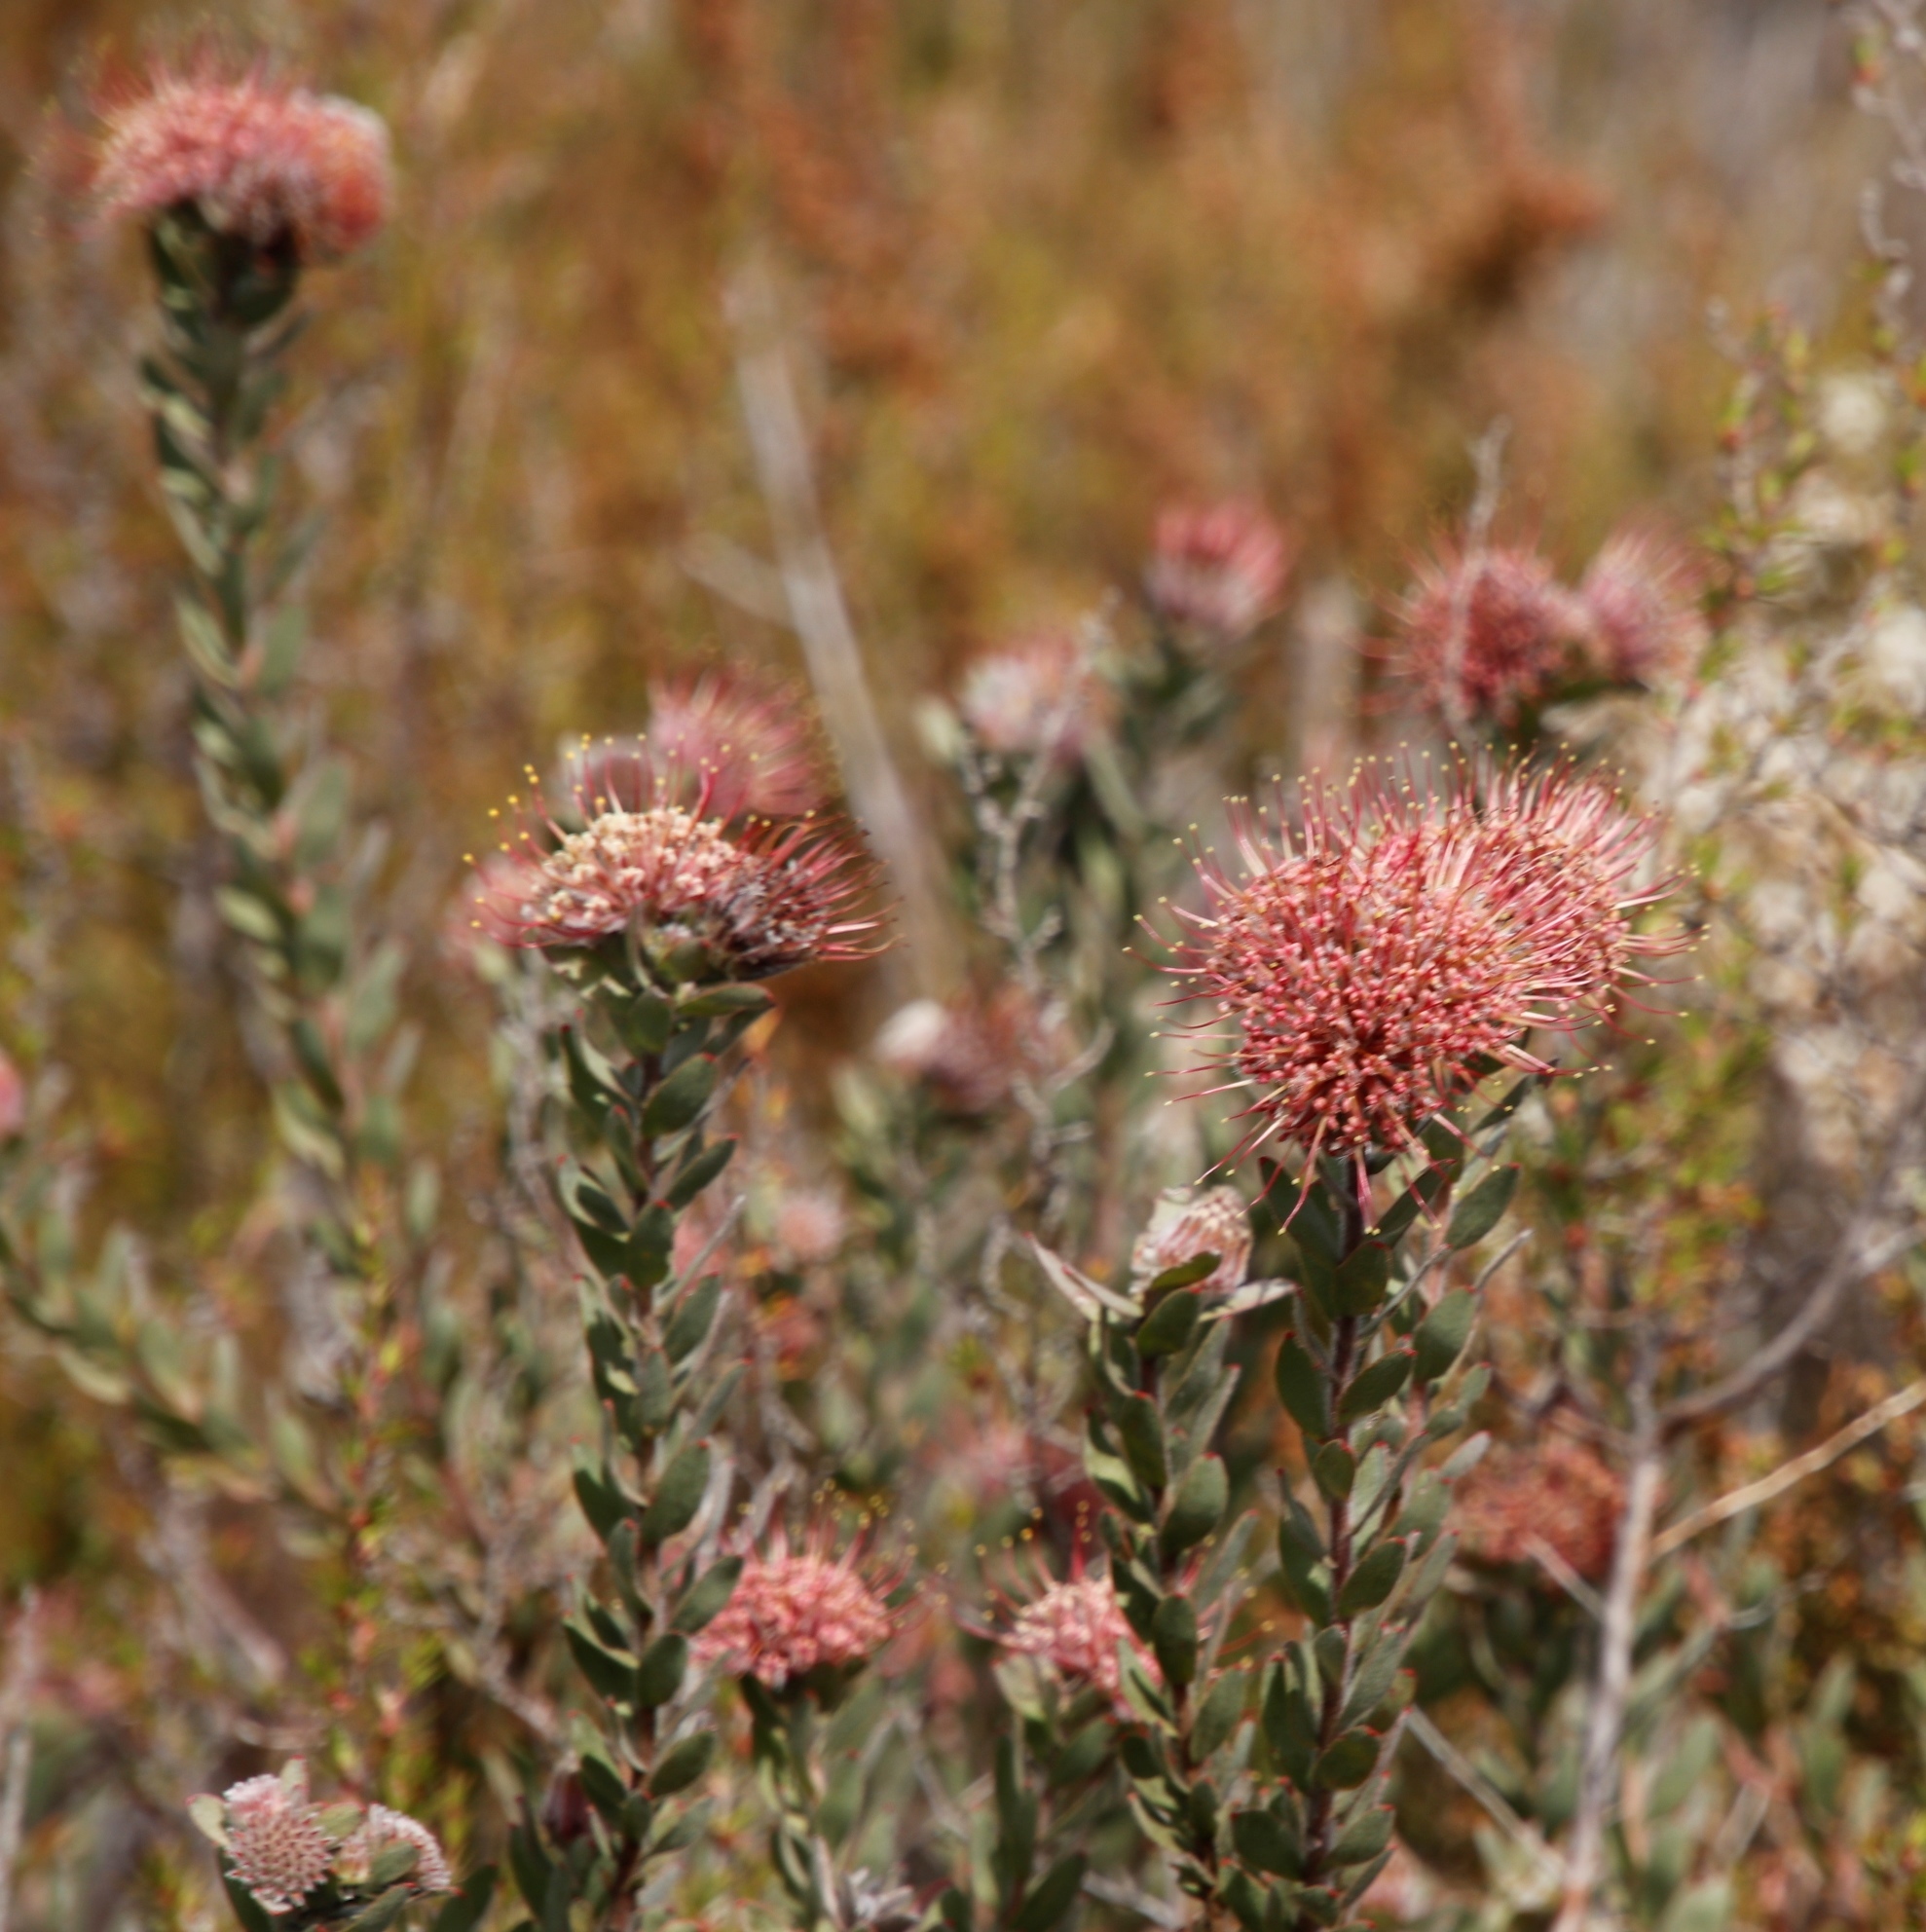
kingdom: Plantae
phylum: Tracheophyta
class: Magnoliopsida
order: Proteales
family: Proteaceae
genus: Leucospermum
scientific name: Leucospermum calligerum
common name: Arid pincushion
